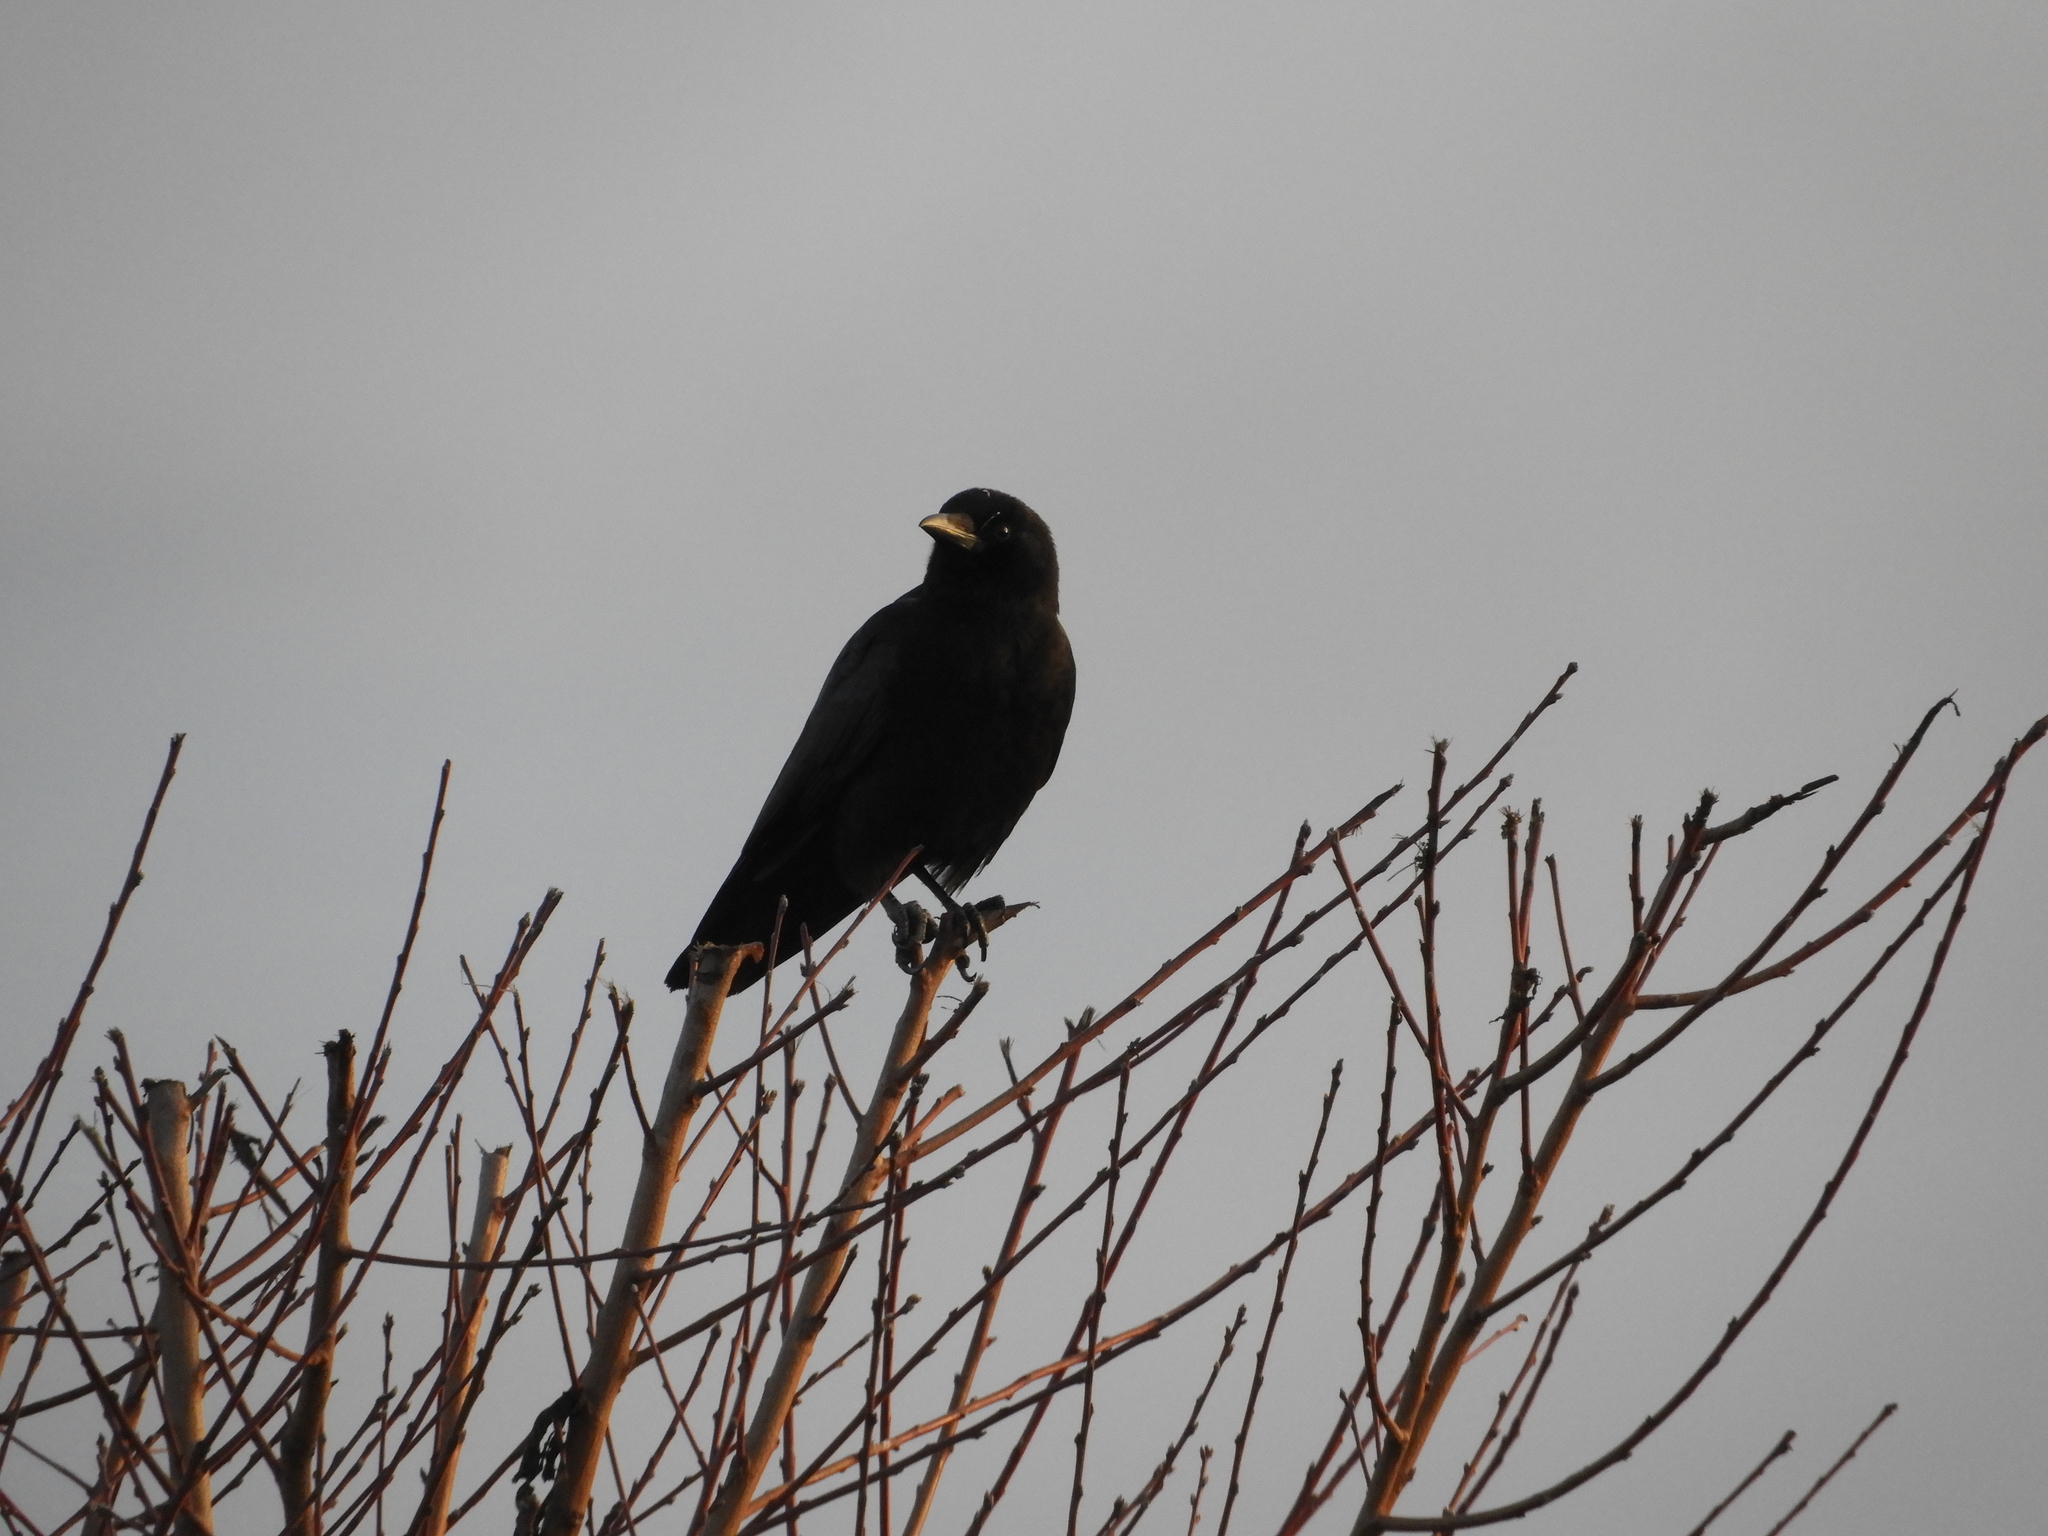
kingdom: Animalia
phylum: Chordata
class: Aves
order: Passeriformes
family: Corvidae
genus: Corvus
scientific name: Corvus brachyrhynchos
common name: American crow
